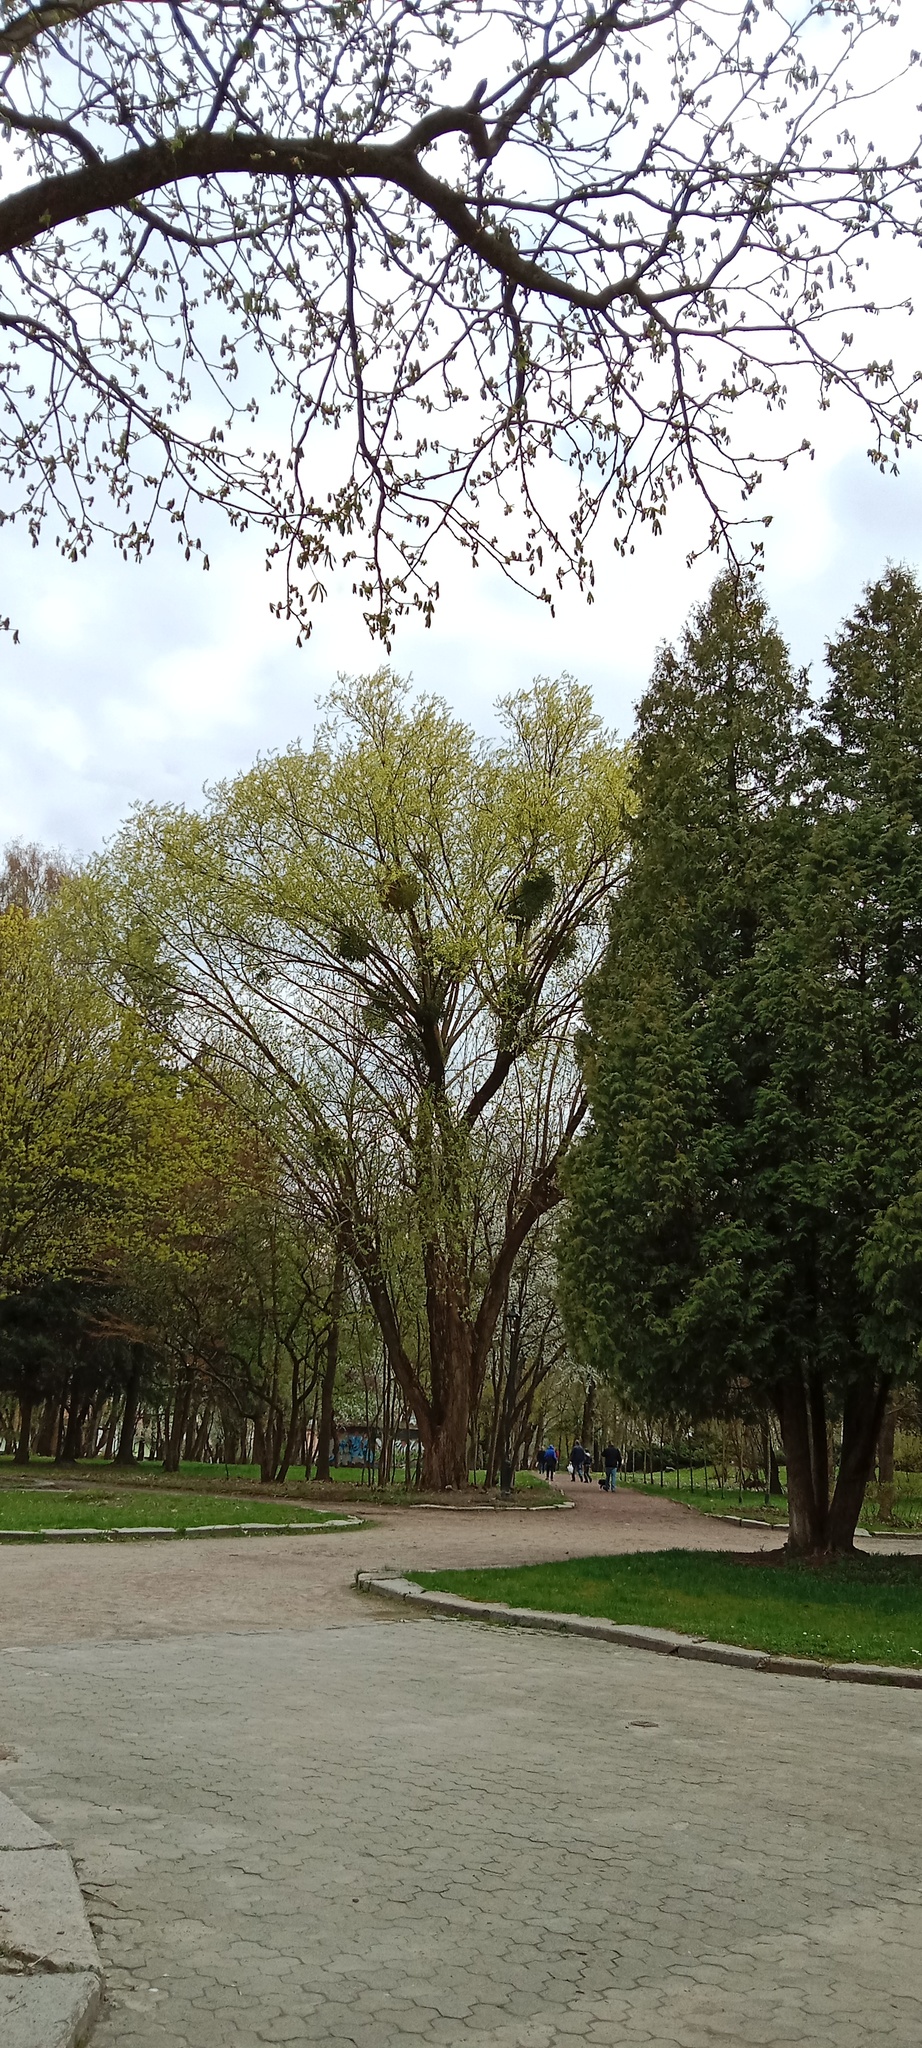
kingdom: Plantae
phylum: Tracheophyta
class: Magnoliopsida
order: Santalales
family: Viscaceae
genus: Viscum
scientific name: Viscum album
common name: Mistletoe
